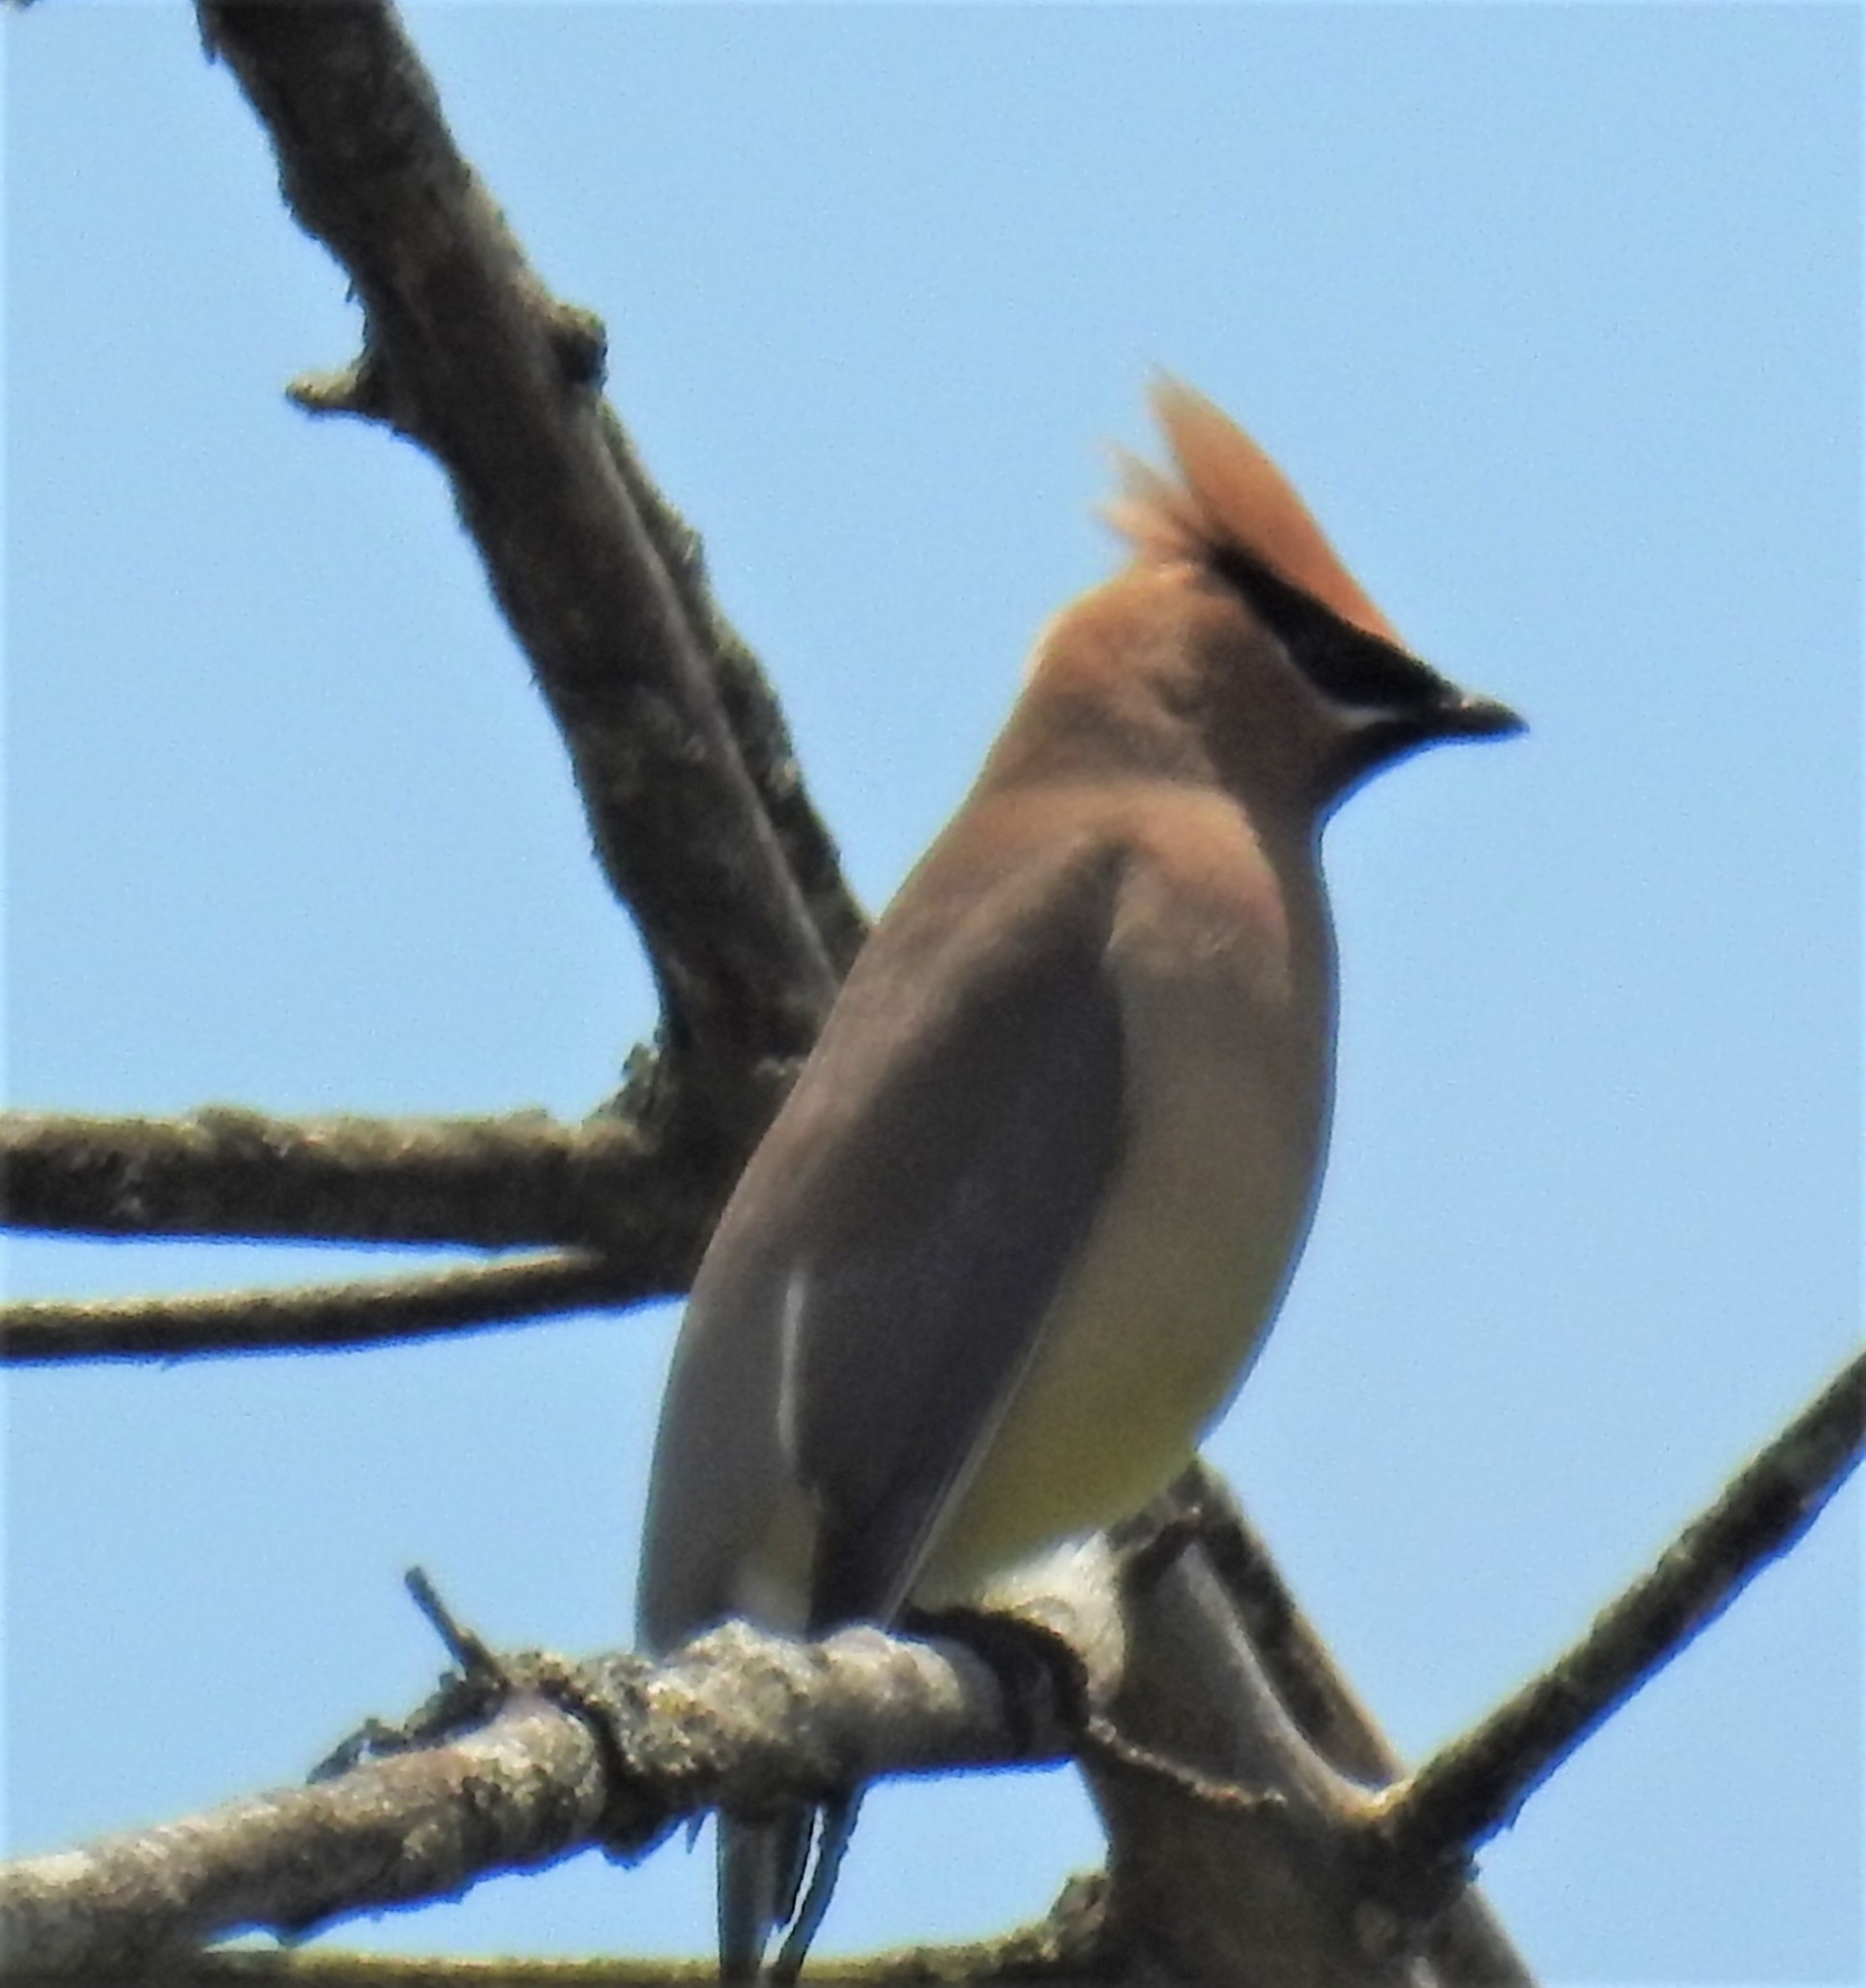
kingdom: Animalia
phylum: Chordata
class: Aves
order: Passeriformes
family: Bombycillidae
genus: Bombycilla
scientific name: Bombycilla cedrorum
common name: Cedar waxwing
